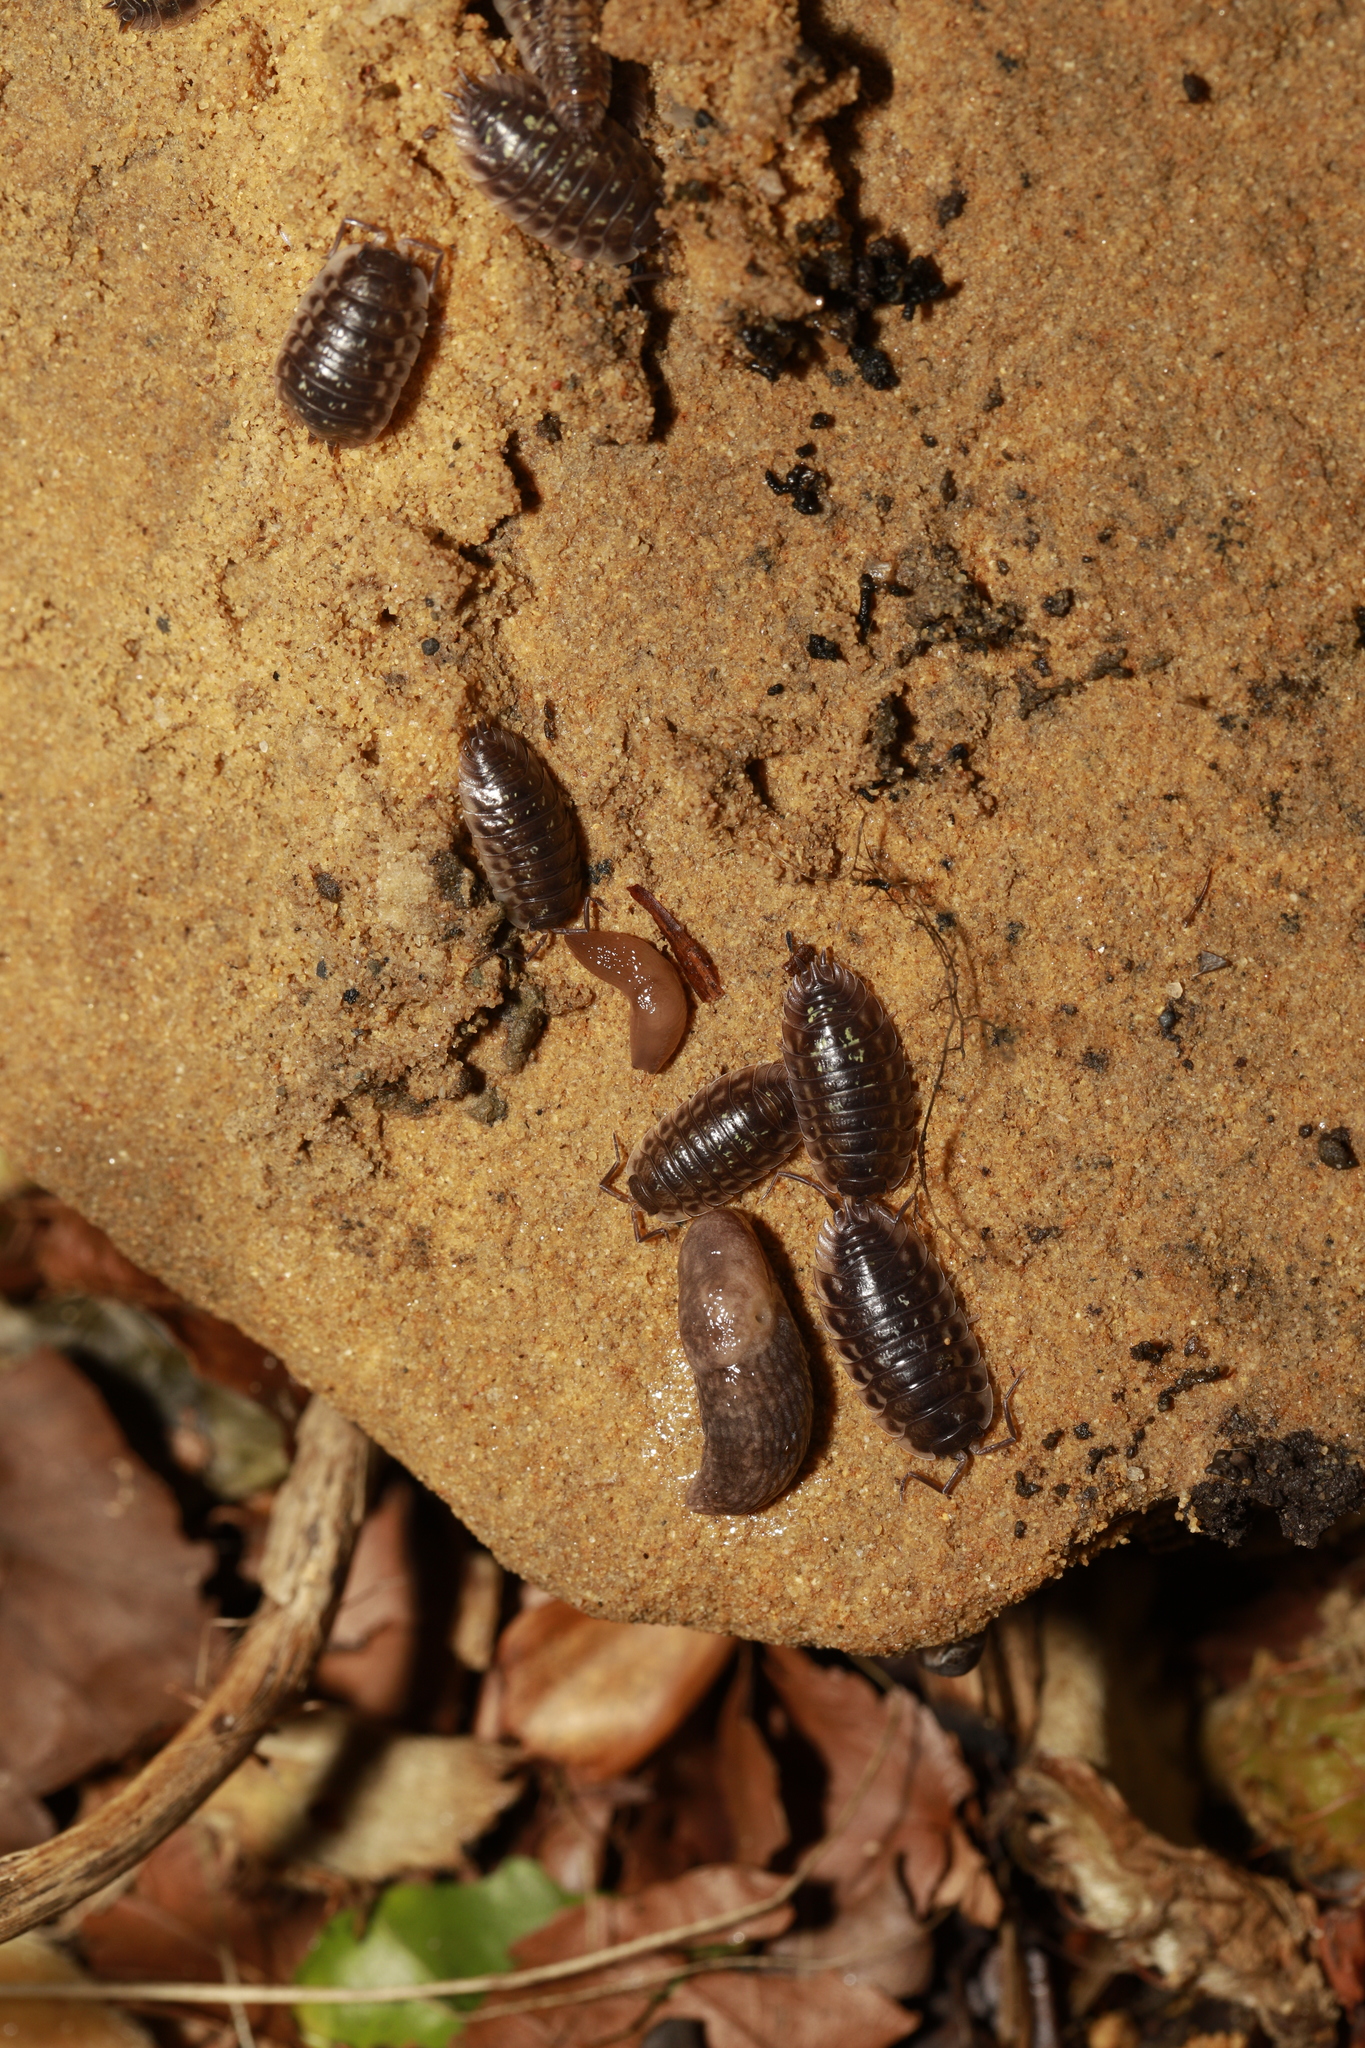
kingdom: Animalia
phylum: Mollusca
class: Gastropoda
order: Stylommatophora
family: Agriolimacidae
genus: Deroceras
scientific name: Deroceras reticulatum
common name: Gray field slug
